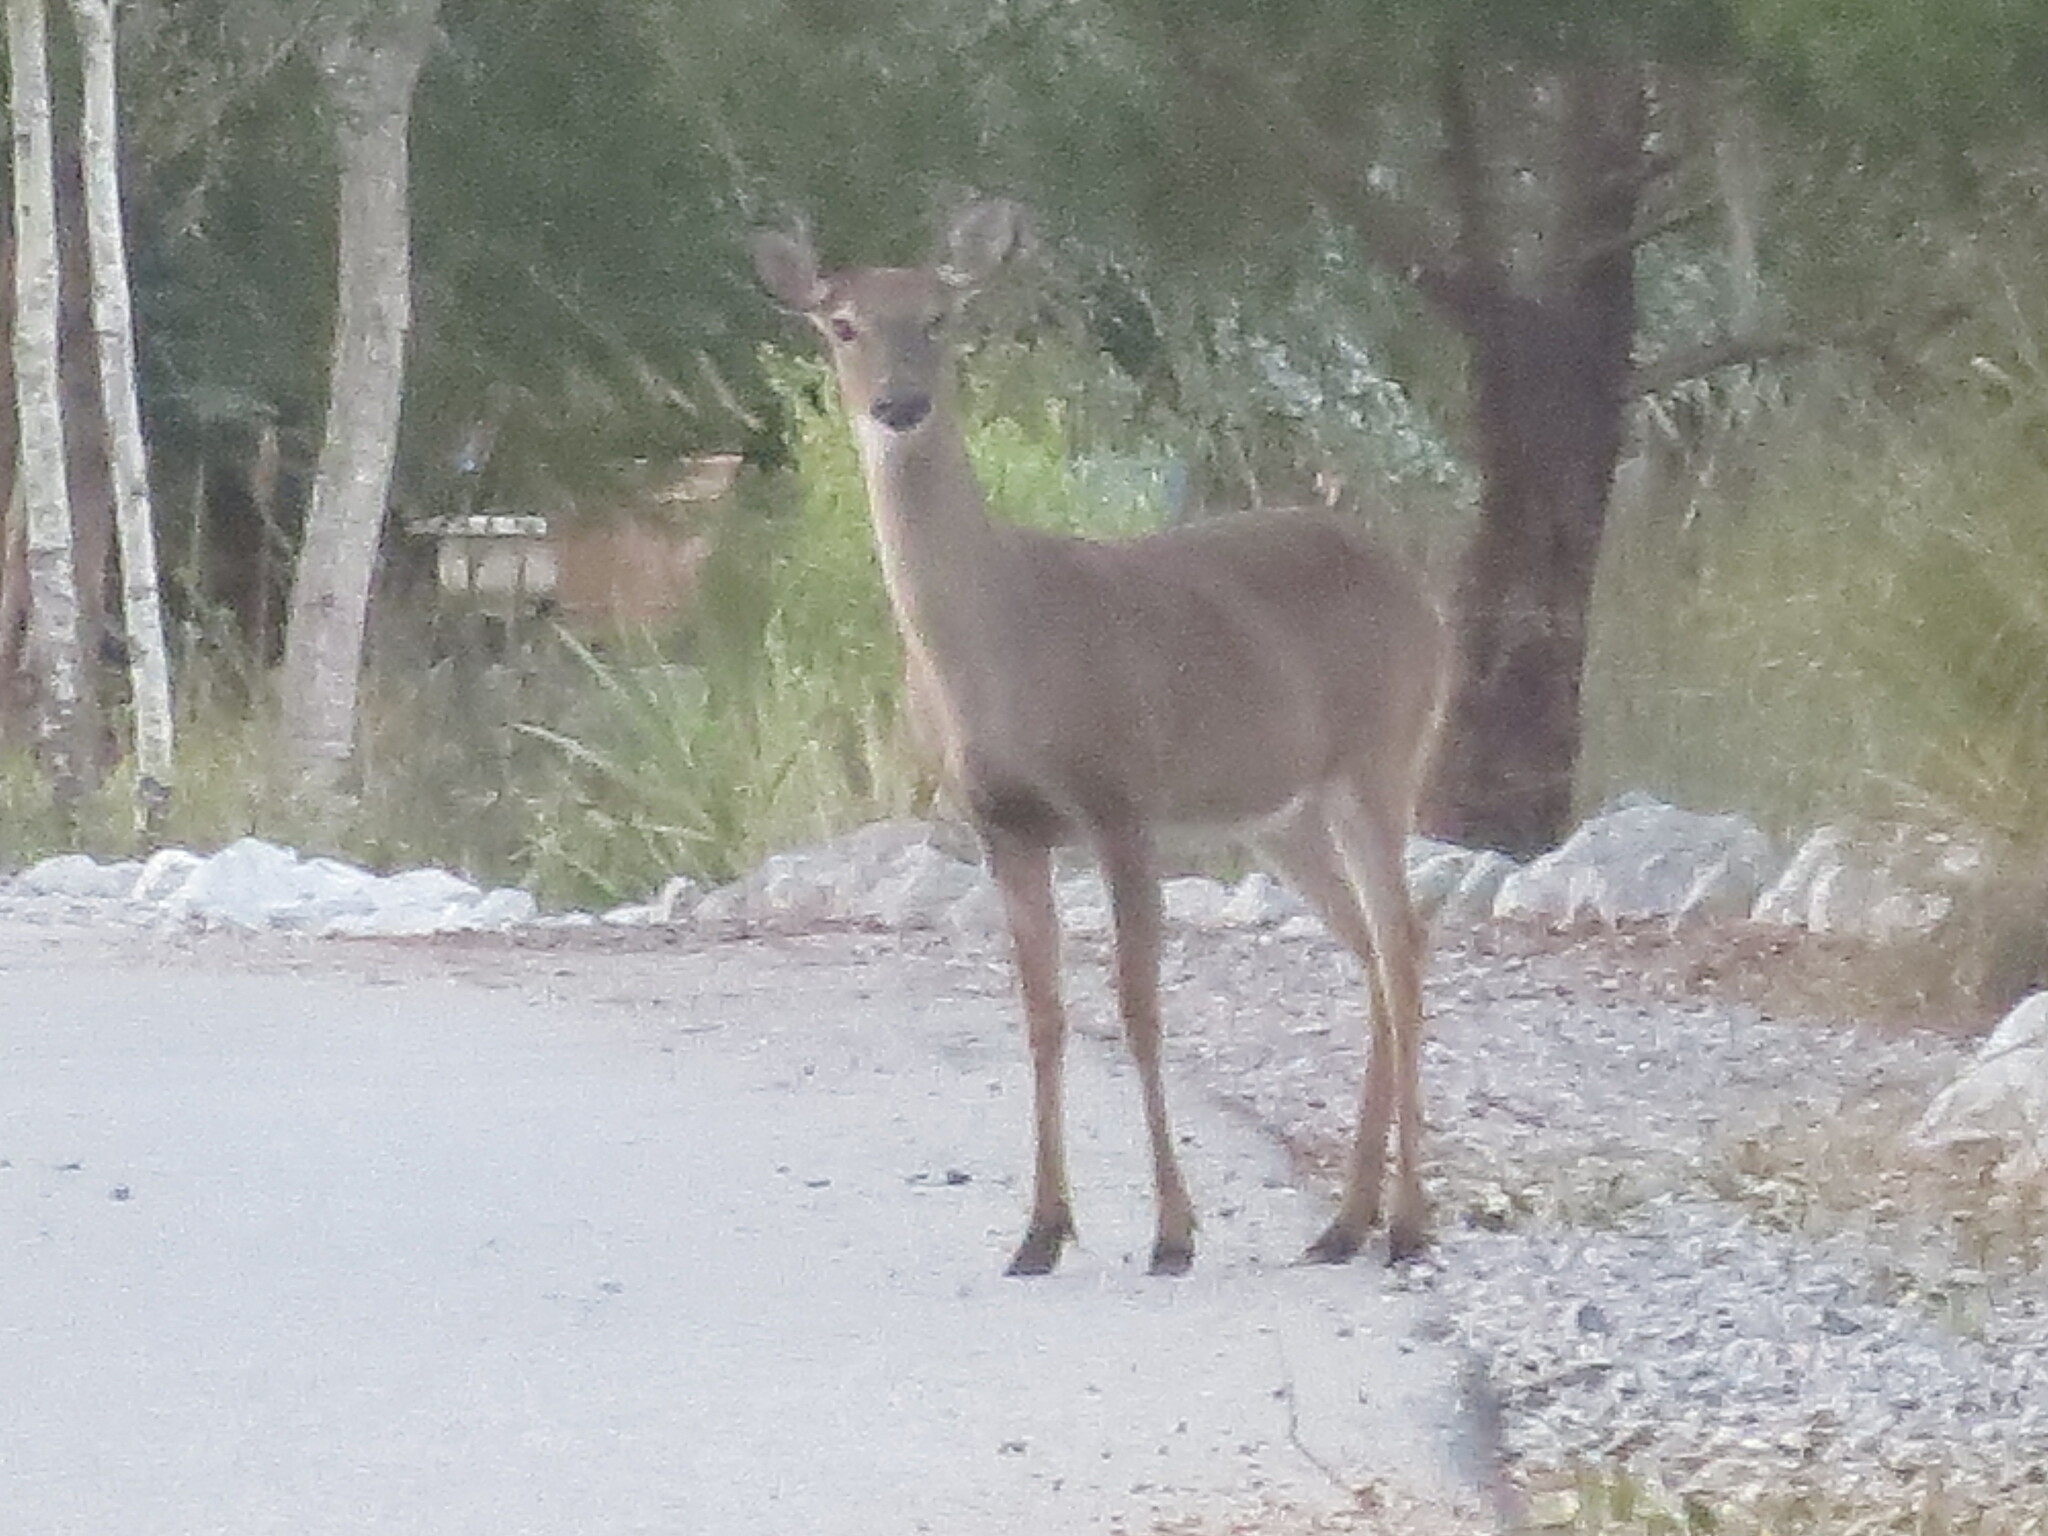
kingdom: Animalia
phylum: Chordata
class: Mammalia
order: Artiodactyla
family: Cervidae
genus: Odocoileus
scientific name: Odocoileus virginianus
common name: White-tailed deer
